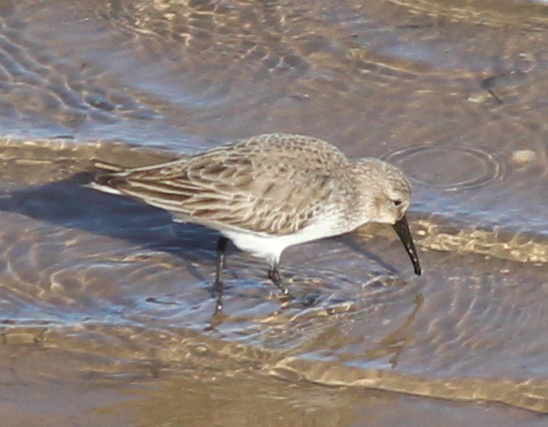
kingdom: Animalia
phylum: Chordata
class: Aves
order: Charadriiformes
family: Scolopacidae
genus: Calidris
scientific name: Calidris alpina
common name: Dunlin
